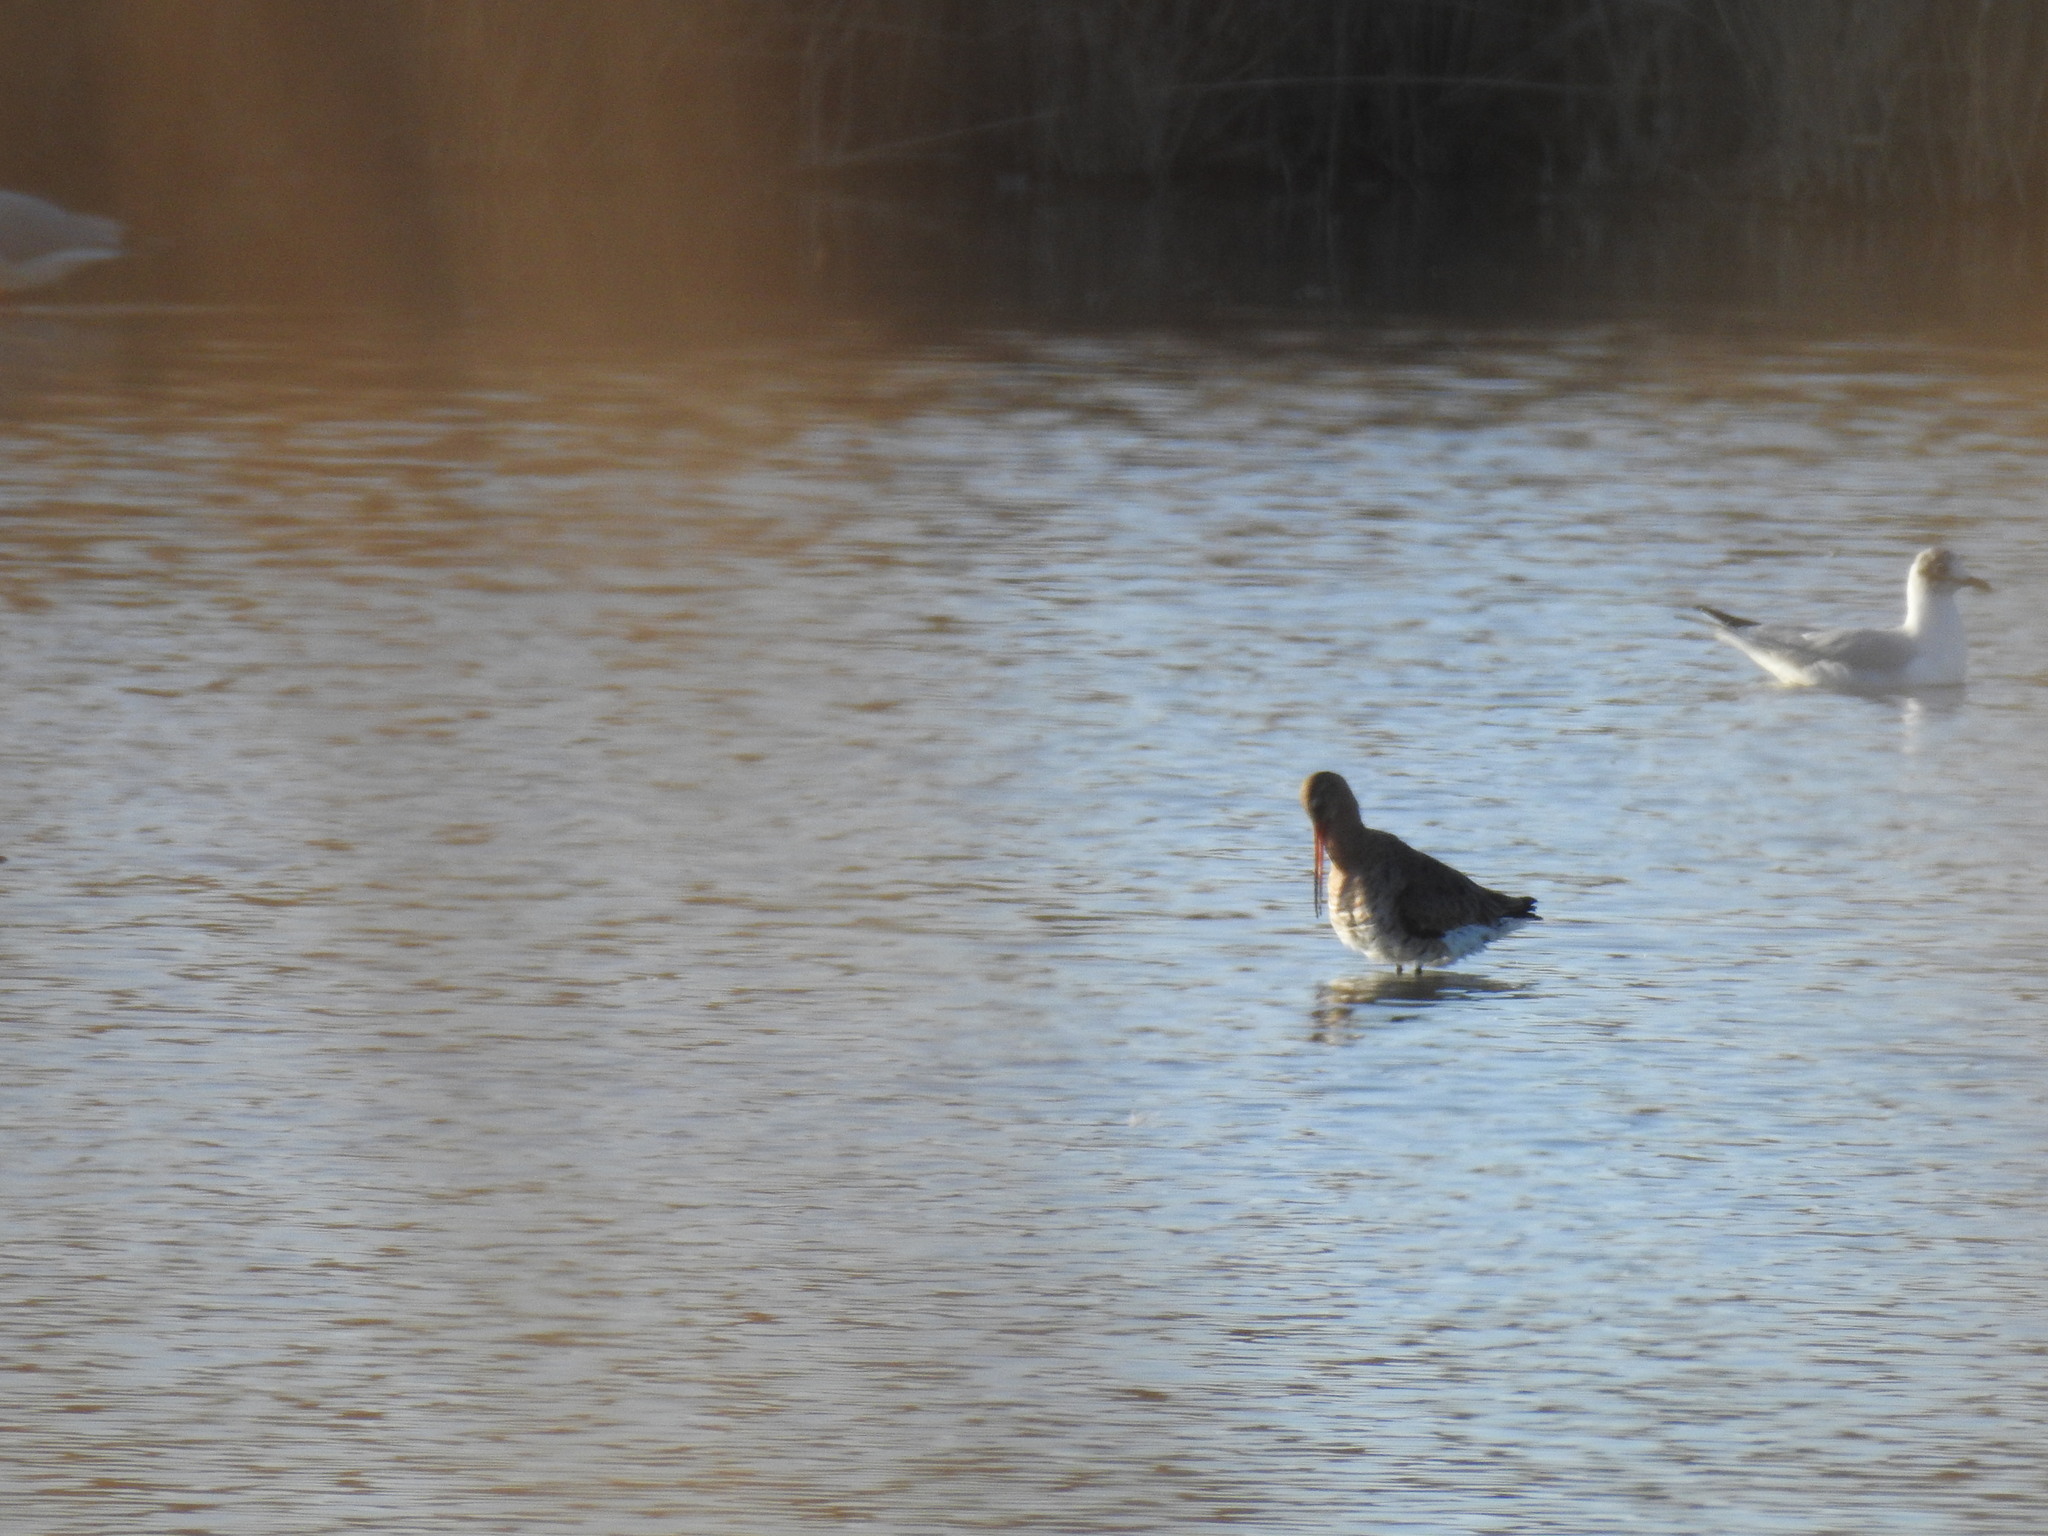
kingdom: Animalia
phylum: Chordata
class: Aves
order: Charadriiformes
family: Scolopacidae
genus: Limosa
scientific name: Limosa limosa
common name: Black-tailed godwit
